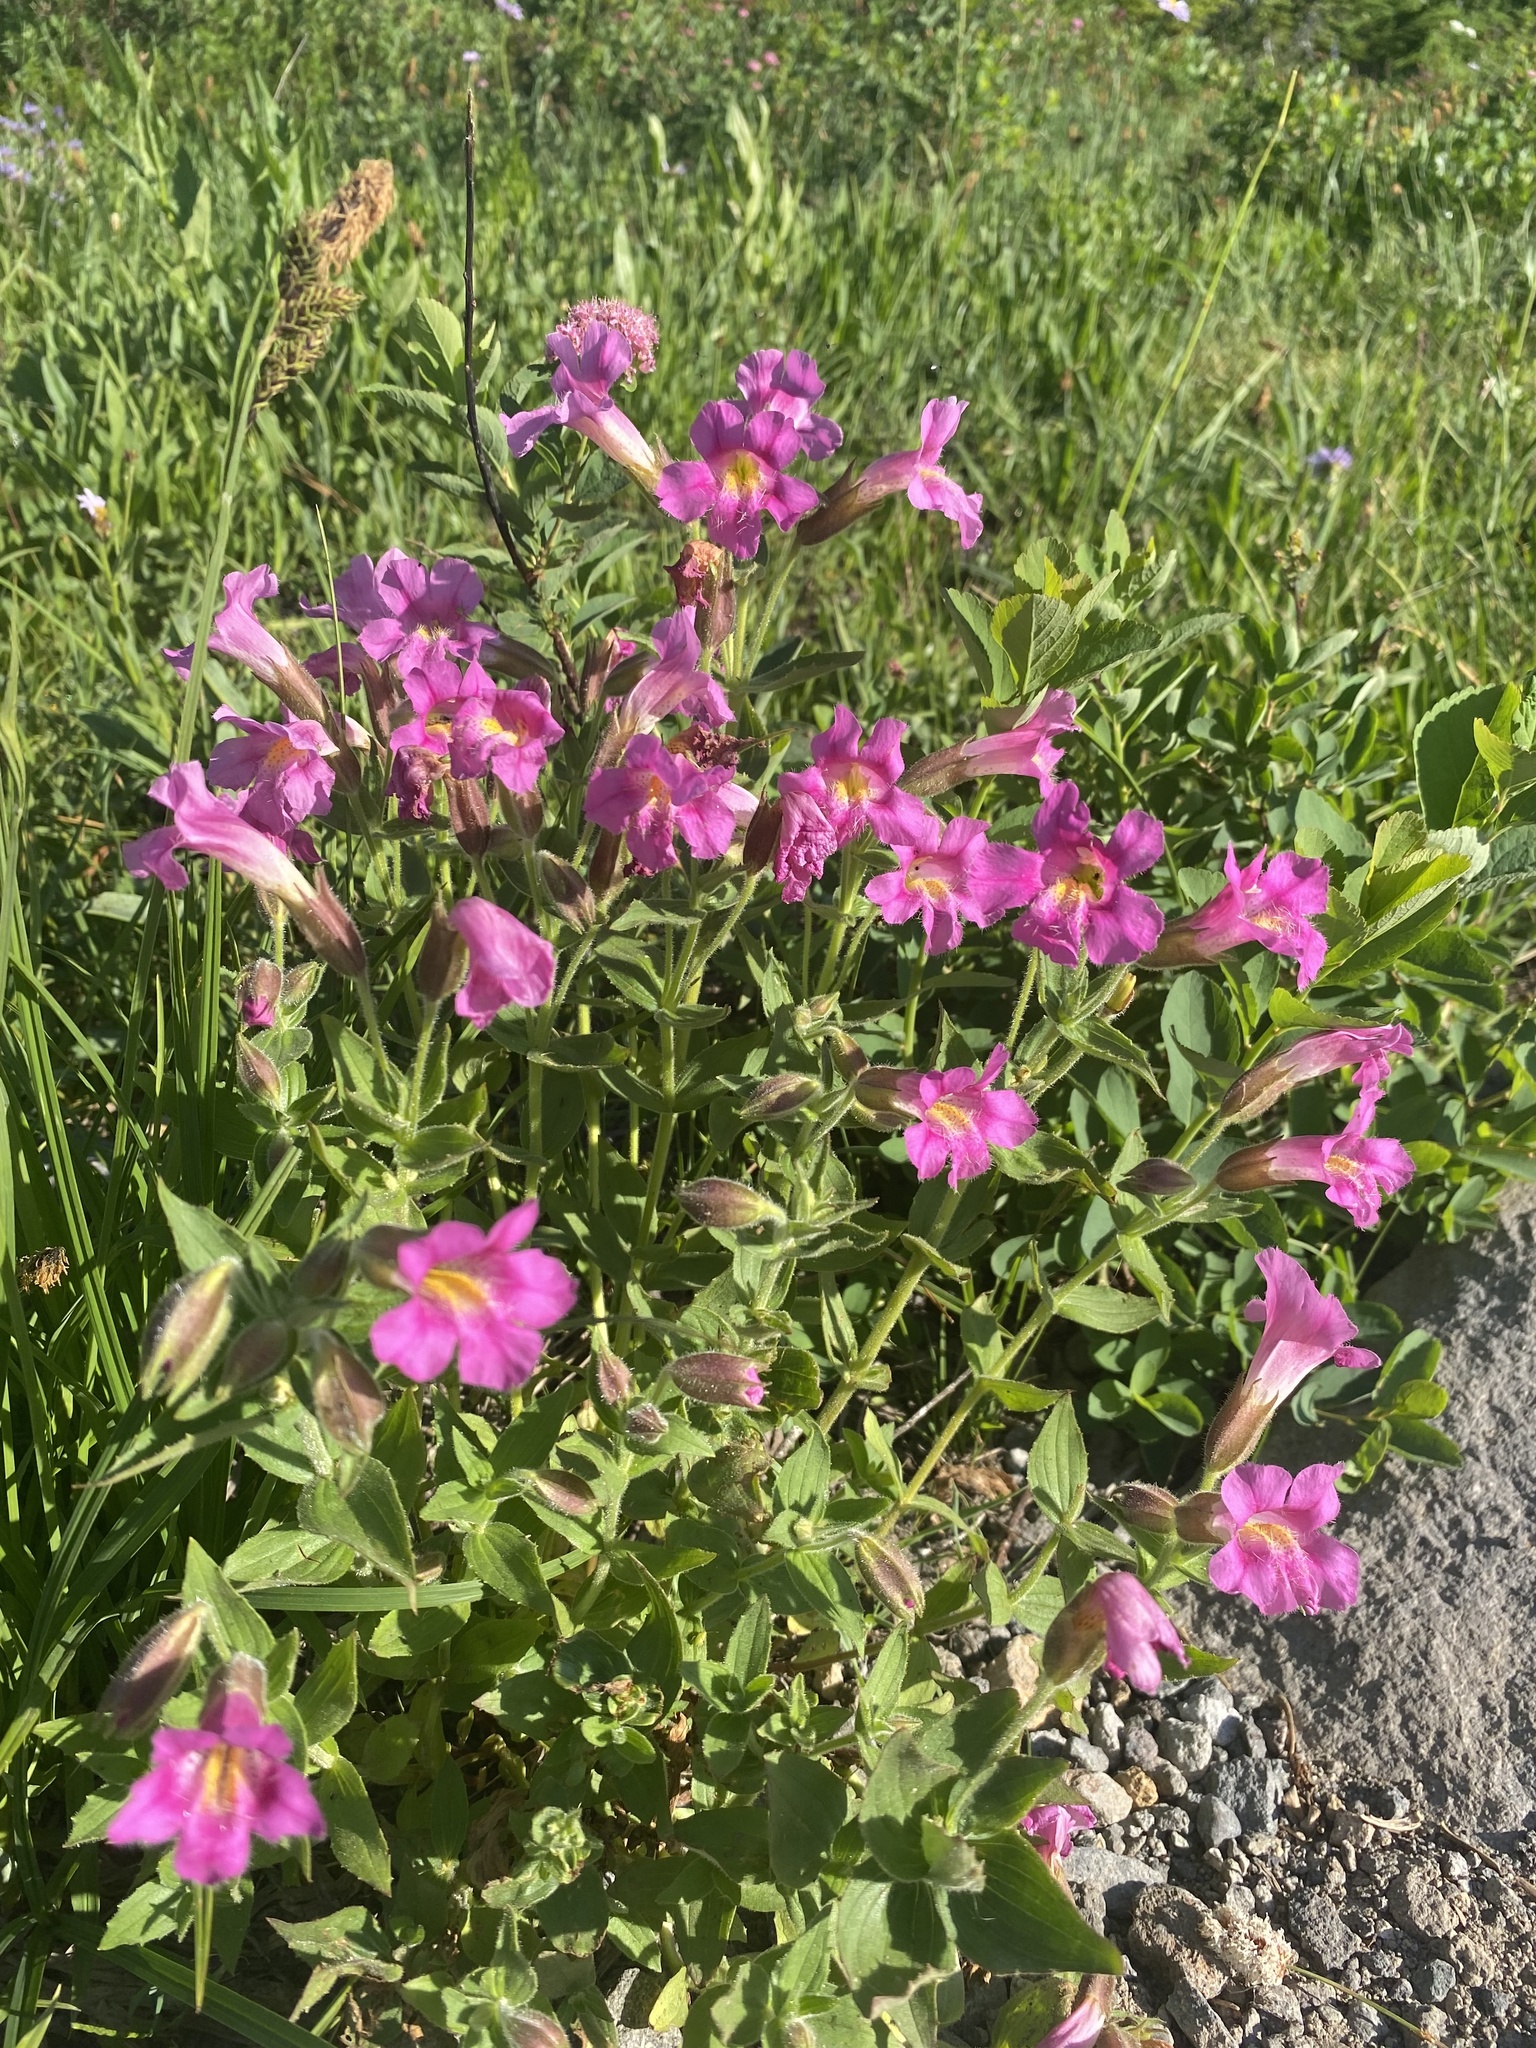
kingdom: Plantae
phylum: Tracheophyta
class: Magnoliopsida
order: Lamiales
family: Phrymaceae
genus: Erythranthe
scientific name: Erythranthe lewisii
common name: Lewis's monkey-flower
